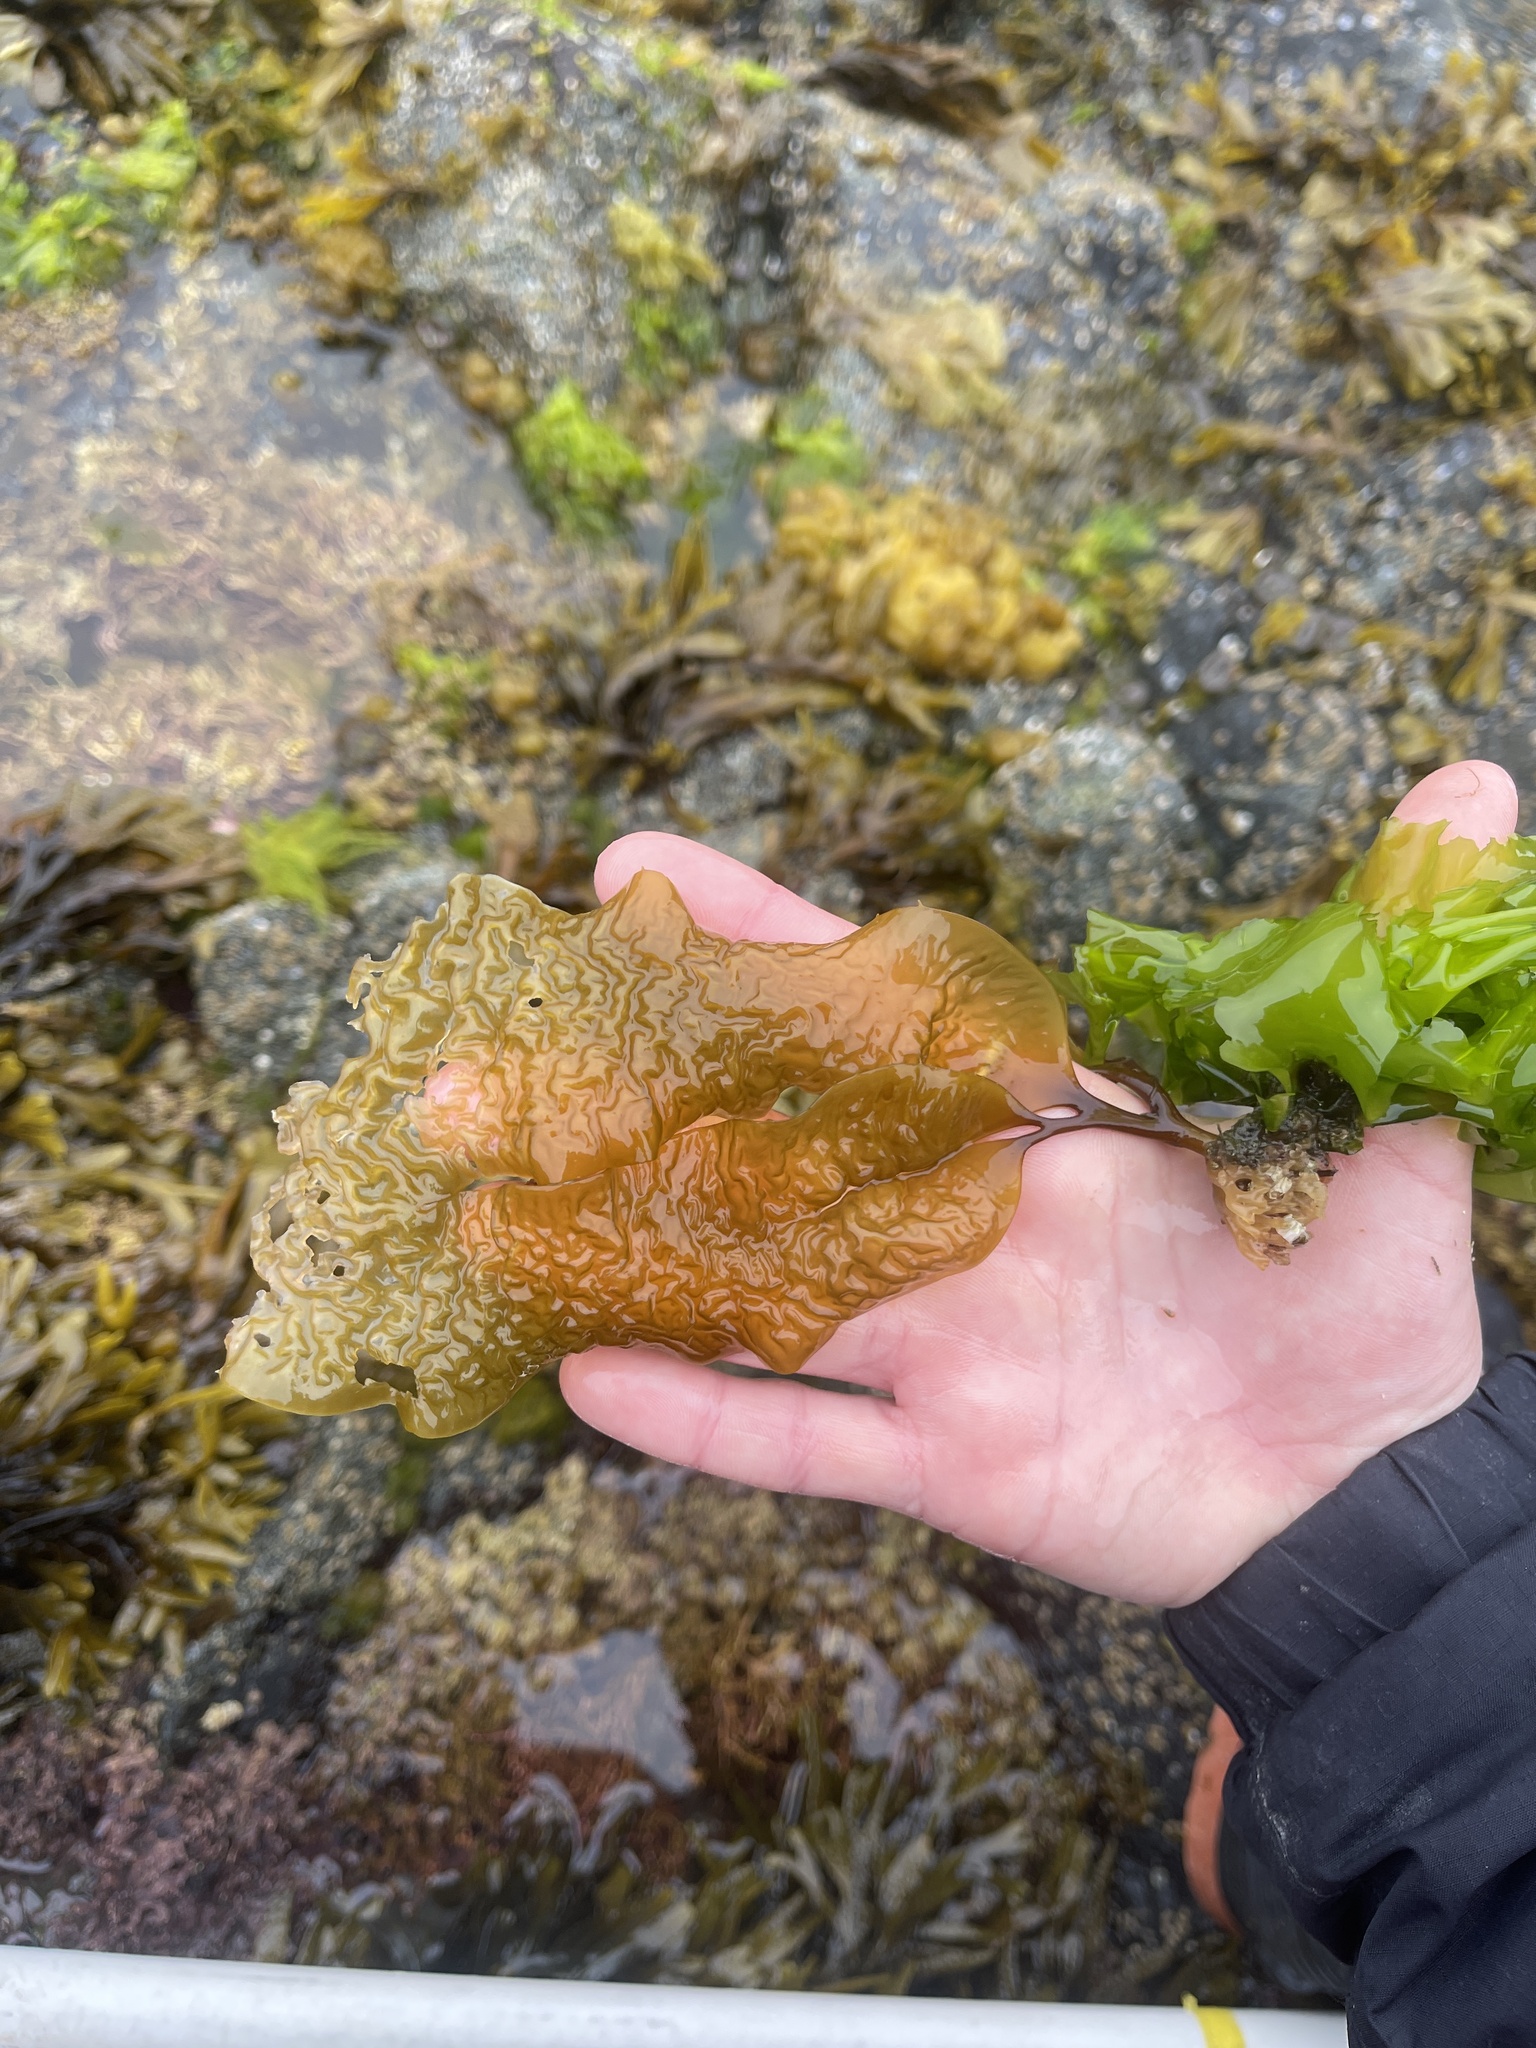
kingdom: Chromista
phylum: Ochrophyta
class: Phaeophyceae
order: Laminariales
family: Laminariaceae
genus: Macrocystis
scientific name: Macrocystis pyrifera
